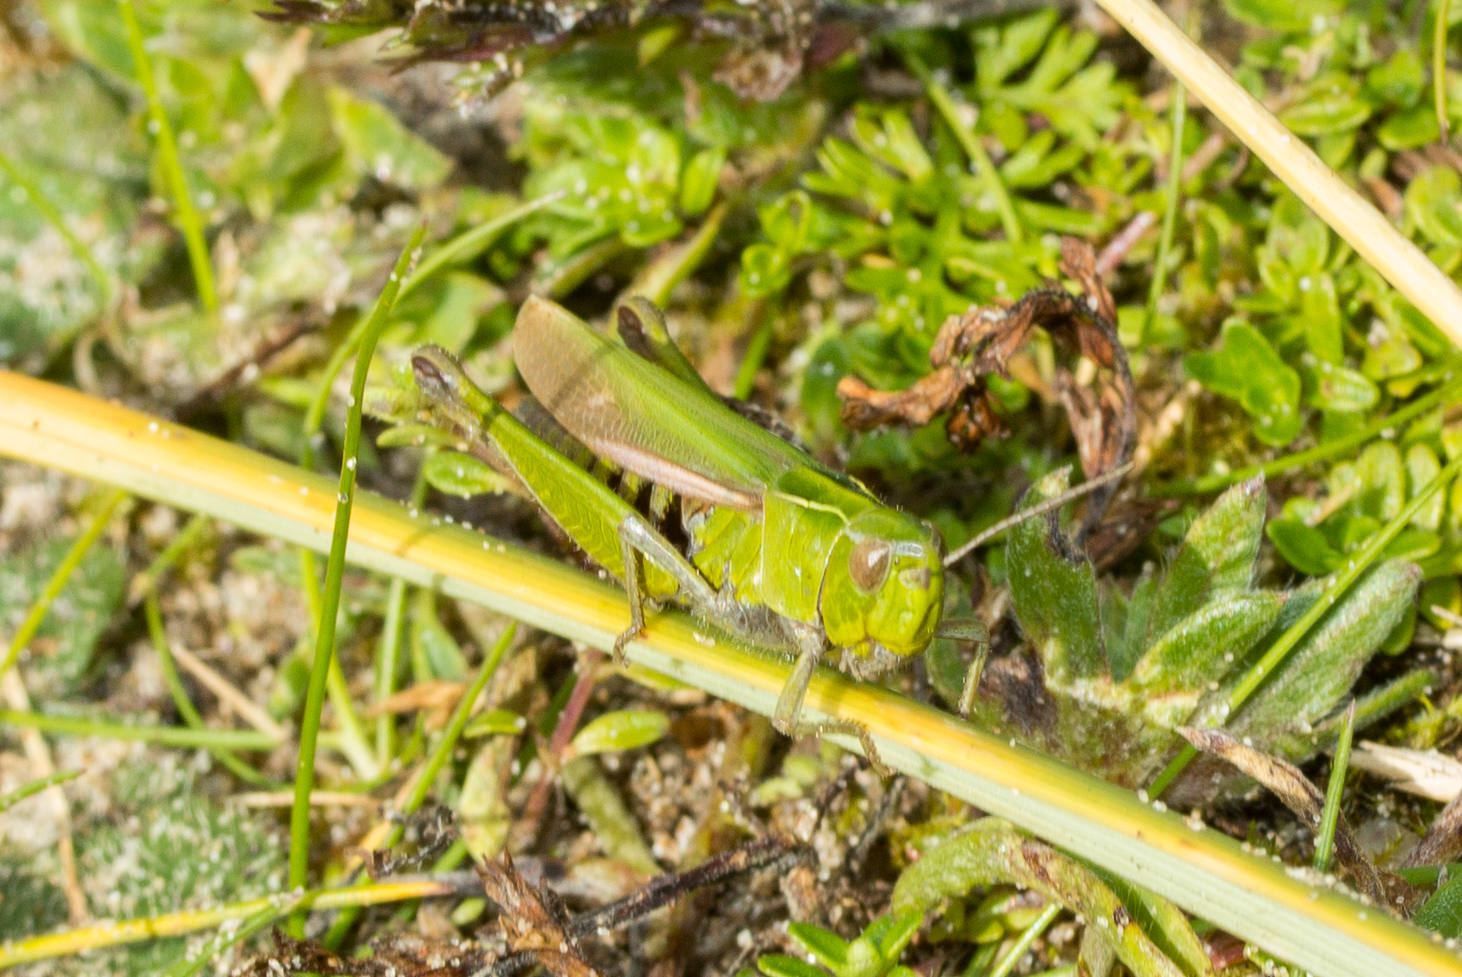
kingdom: Animalia
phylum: Arthropoda
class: Insecta
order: Orthoptera
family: Acrididae
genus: Omocestus
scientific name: Omocestus viridulus
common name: Common green grasshopper
